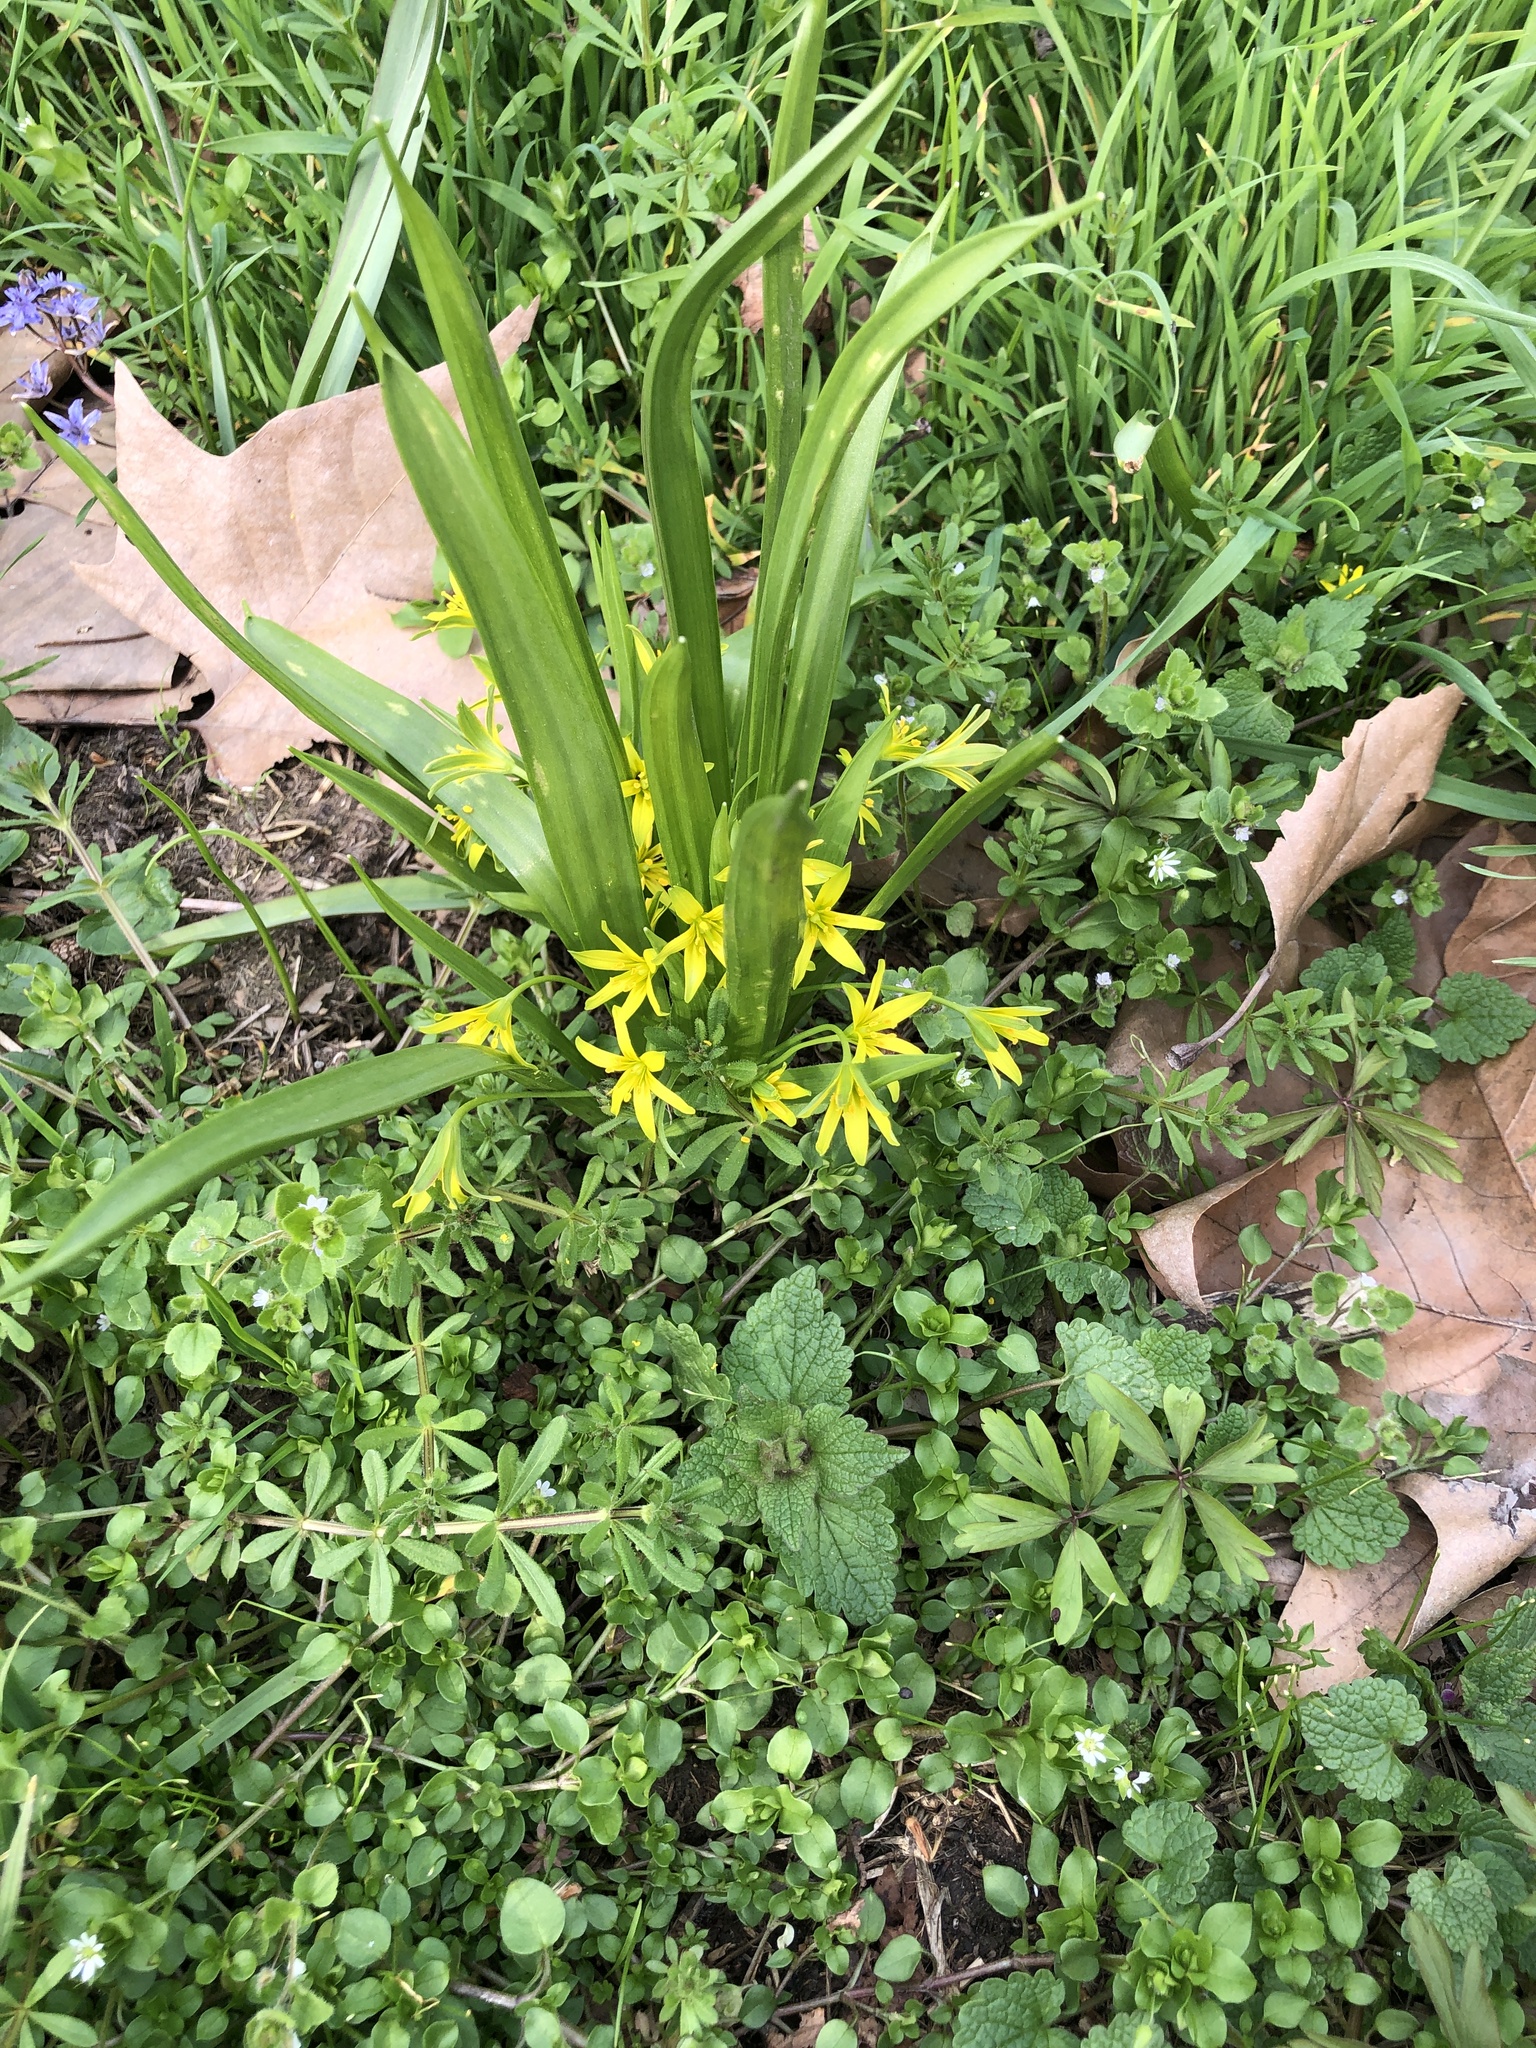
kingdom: Plantae
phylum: Tracheophyta
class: Liliopsida
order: Liliales
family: Liliaceae
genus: Gagea
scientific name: Gagea lutea
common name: Yellow star-of-bethlehem
